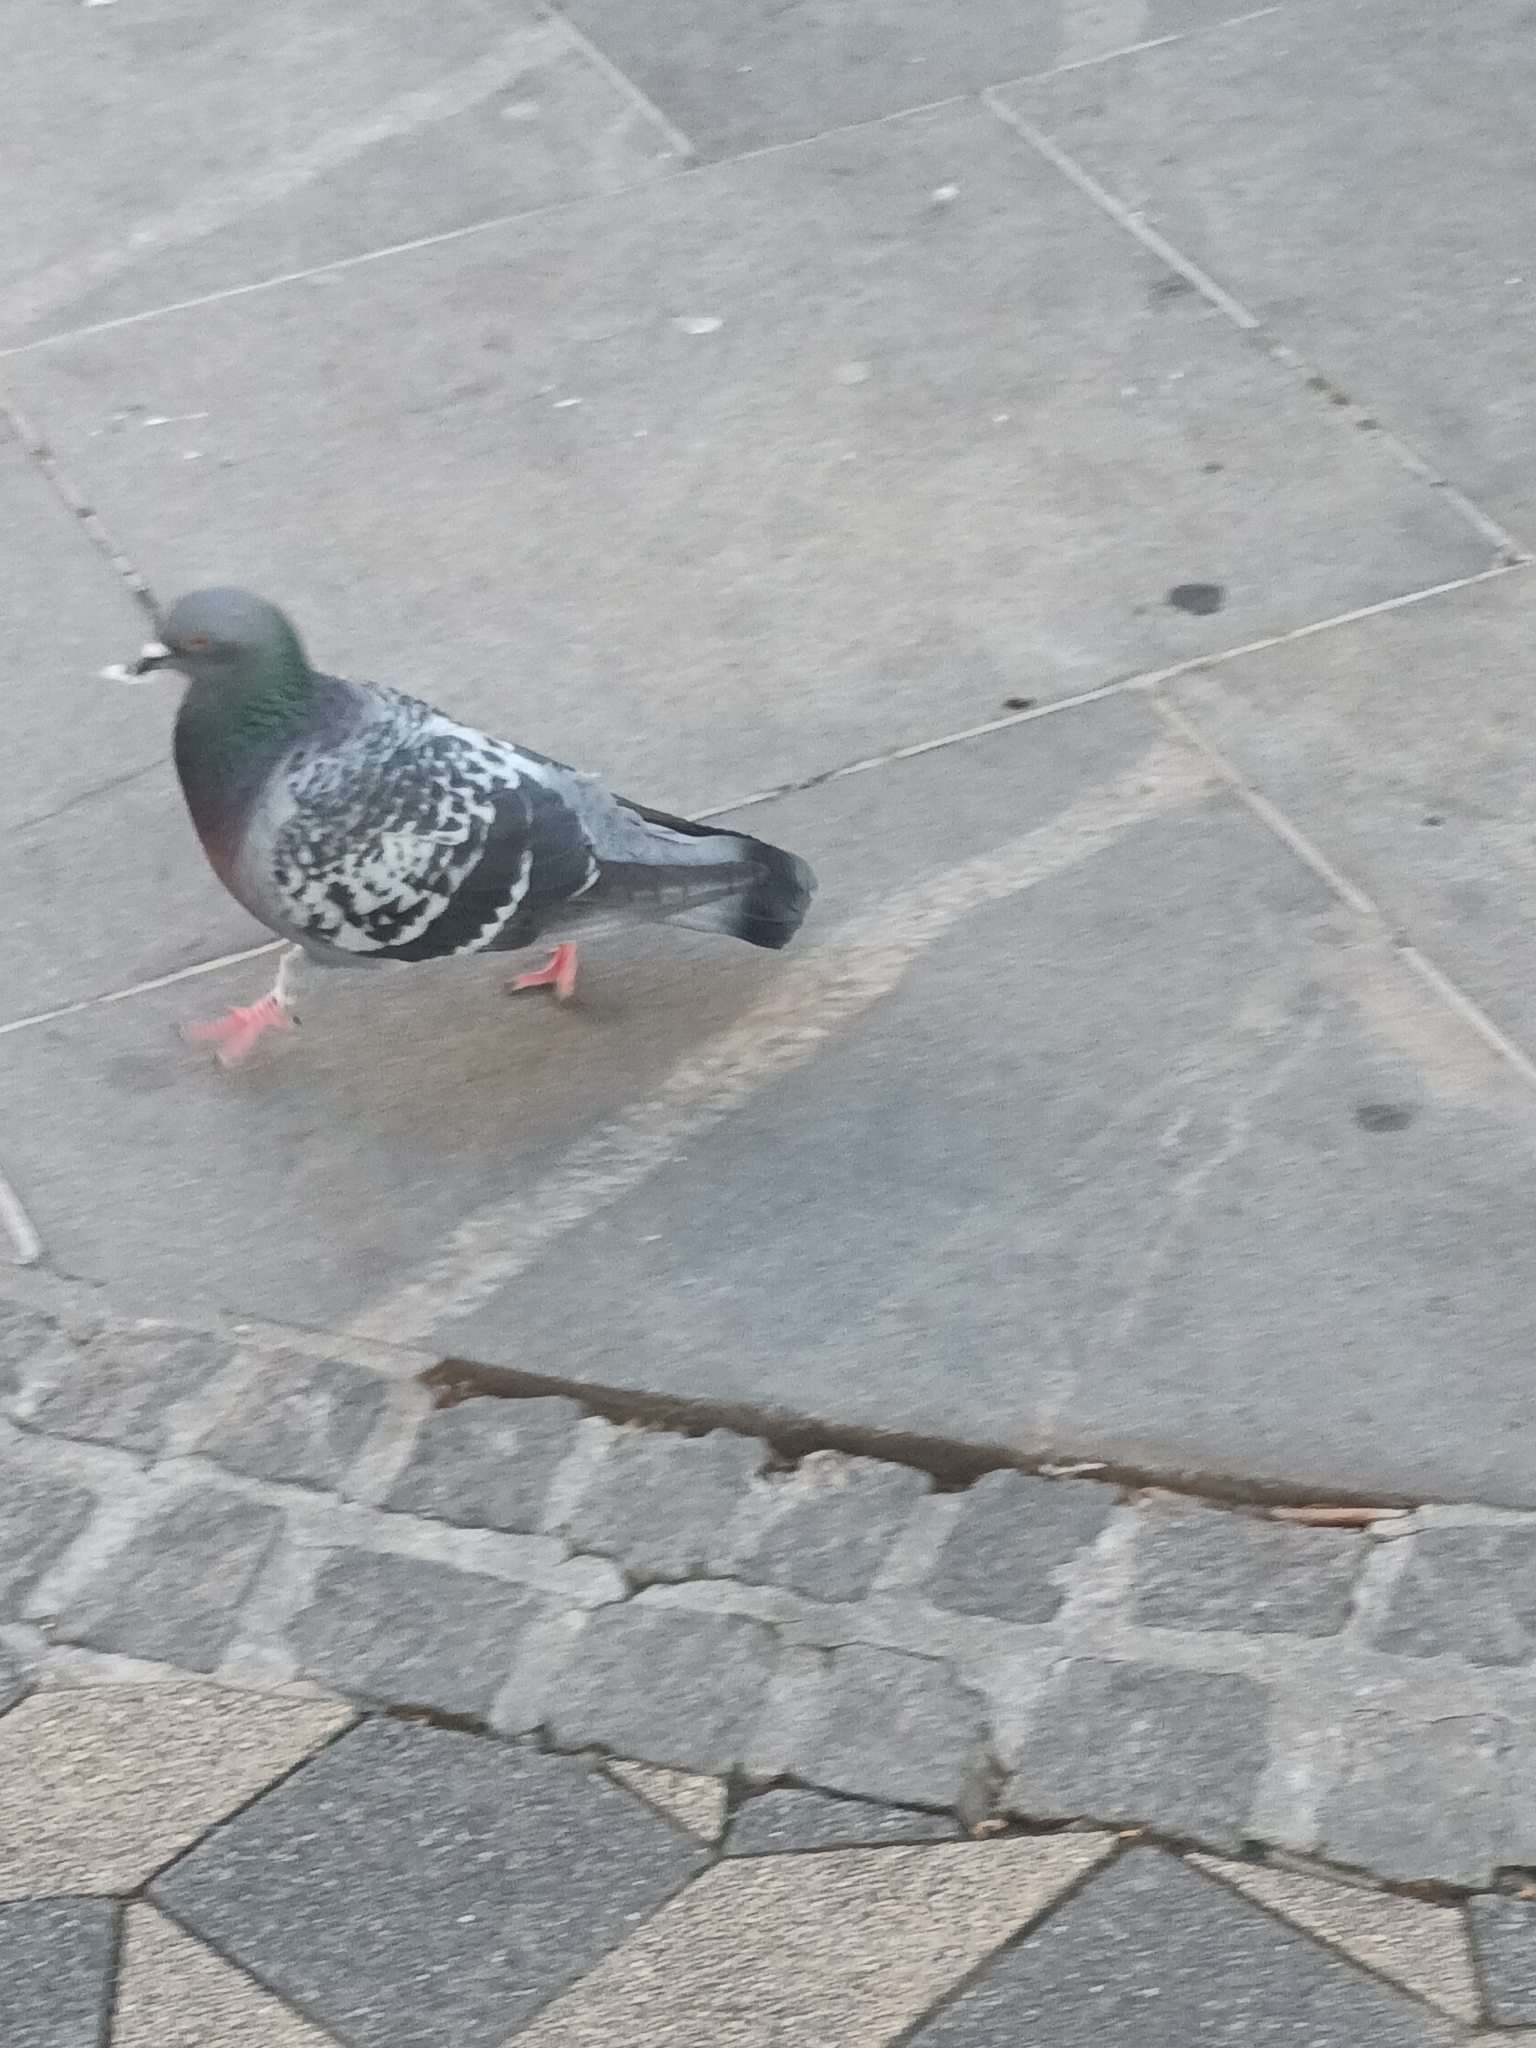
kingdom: Animalia
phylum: Chordata
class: Aves
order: Columbiformes
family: Columbidae
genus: Columba
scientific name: Columba livia
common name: Rock pigeon
